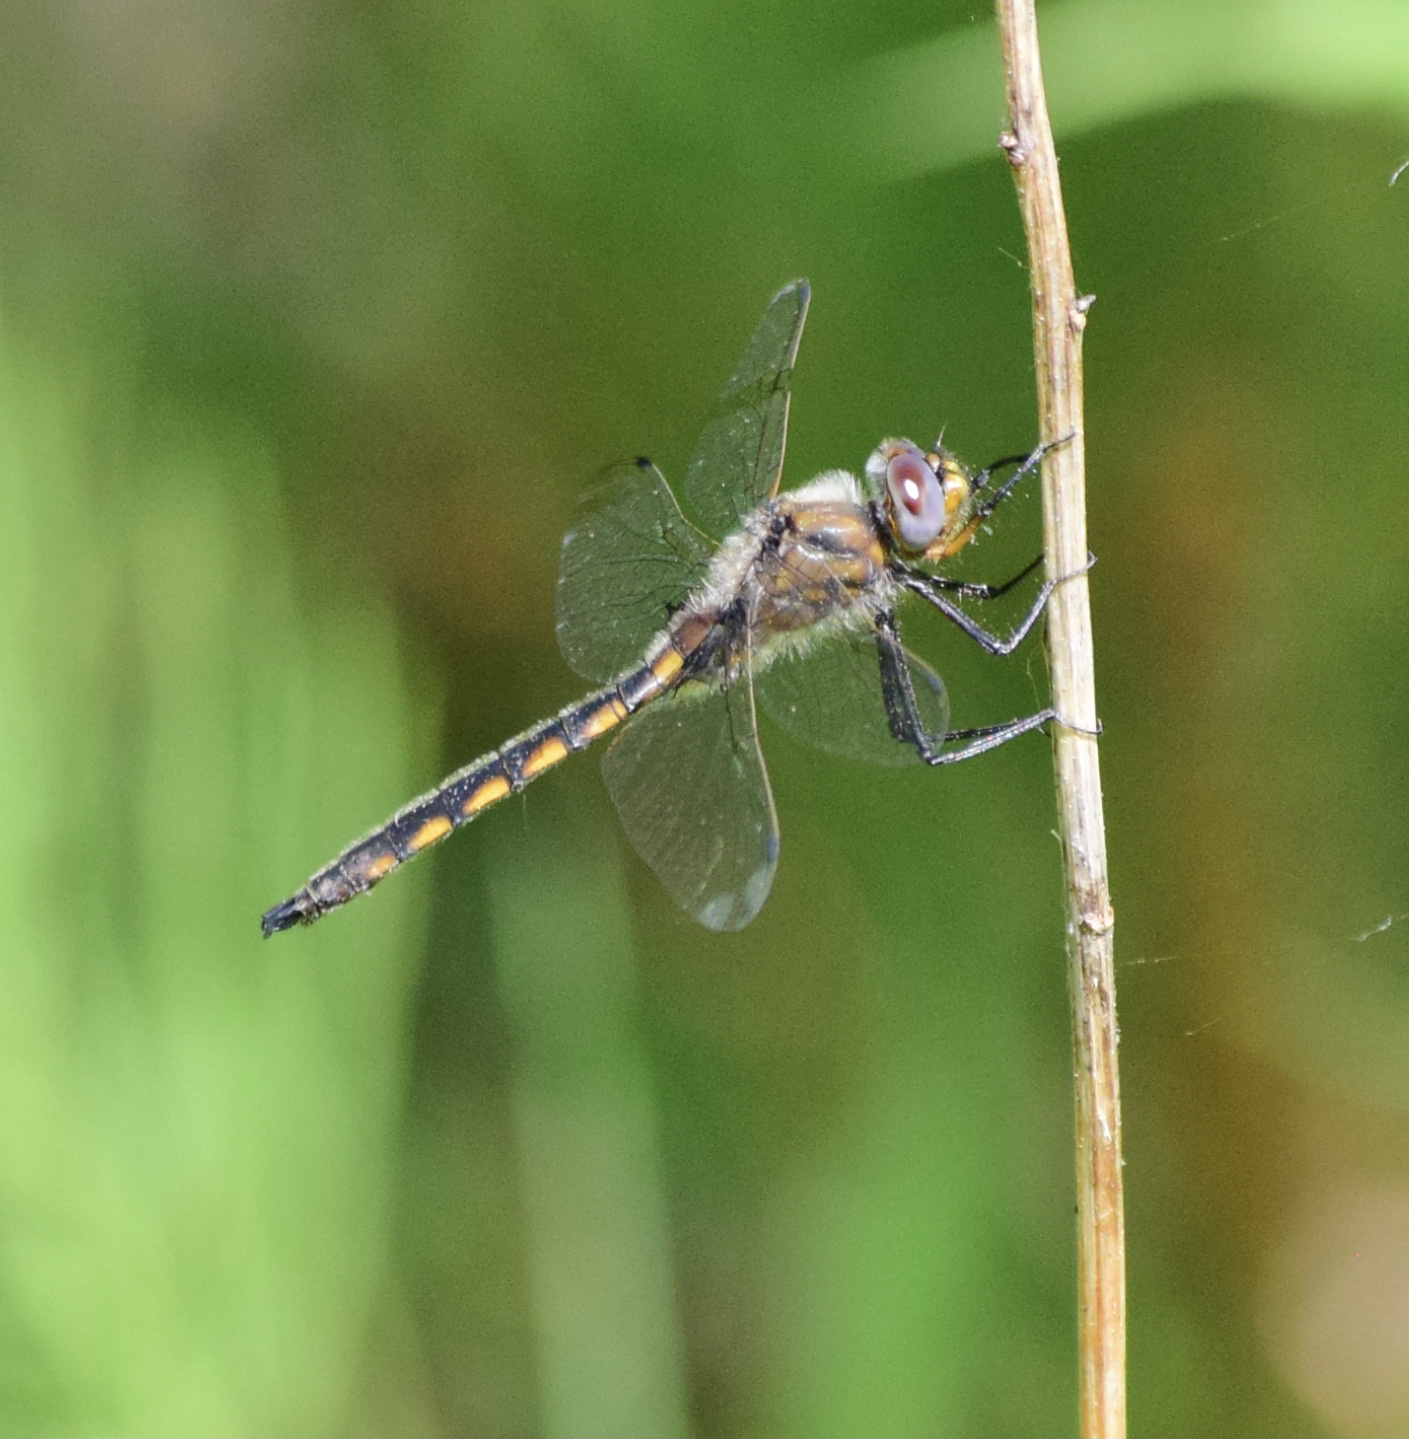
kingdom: Animalia
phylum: Arthropoda
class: Insecta
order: Odonata
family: Corduliidae
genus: Epitheca
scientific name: Epitheca canis
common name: Beaverpond baskettail
